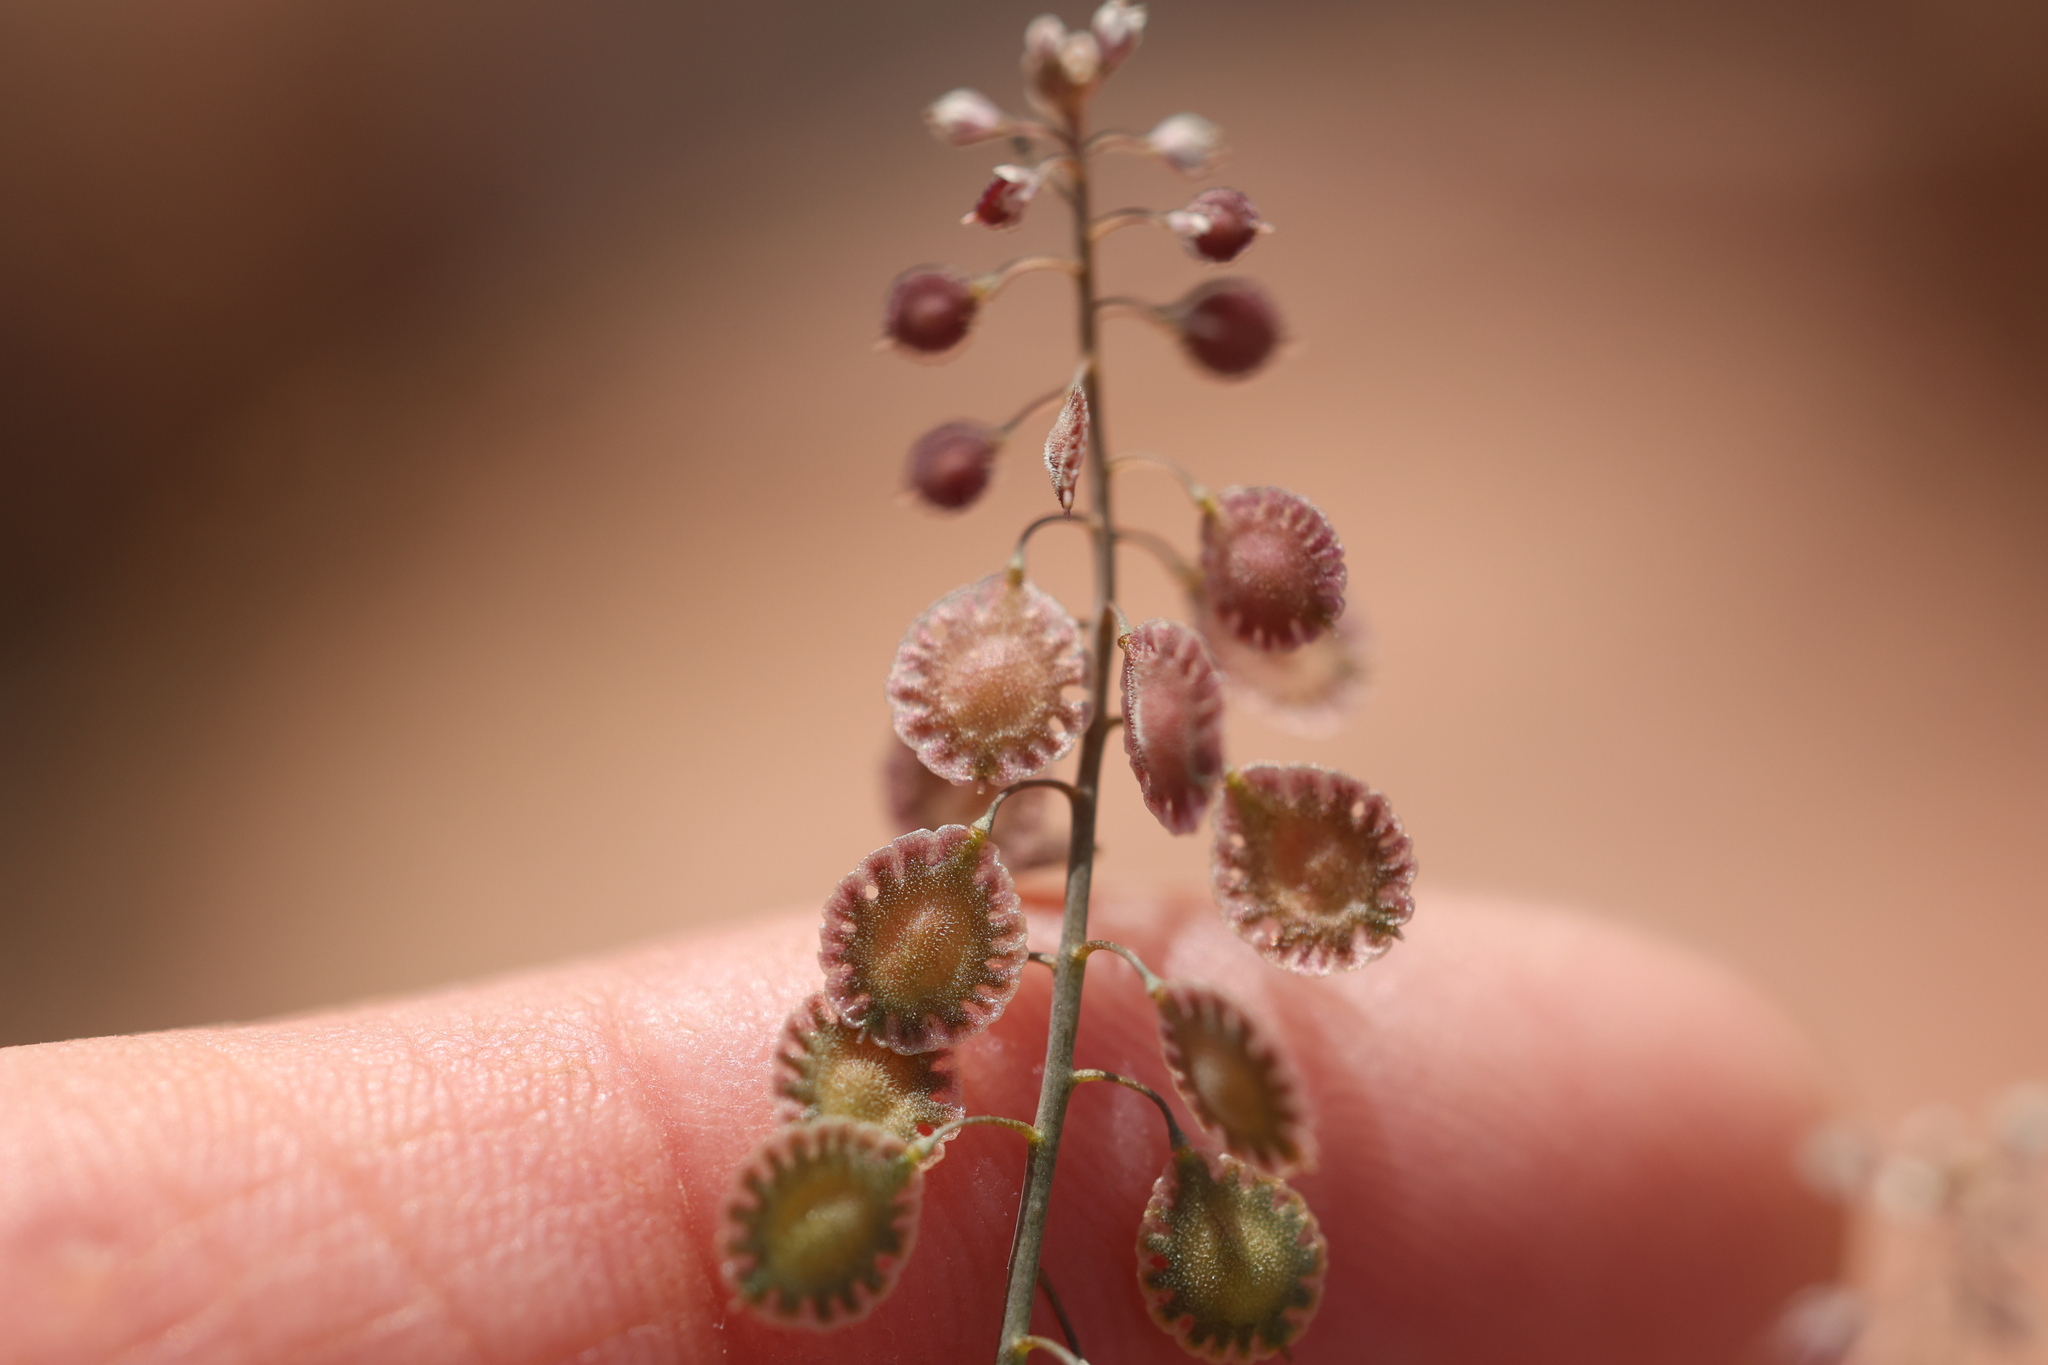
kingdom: Plantae
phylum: Tracheophyta
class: Magnoliopsida
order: Brassicales
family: Brassicaceae
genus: Thysanocarpus
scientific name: Thysanocarpus curvipes
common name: Sand fringepod
